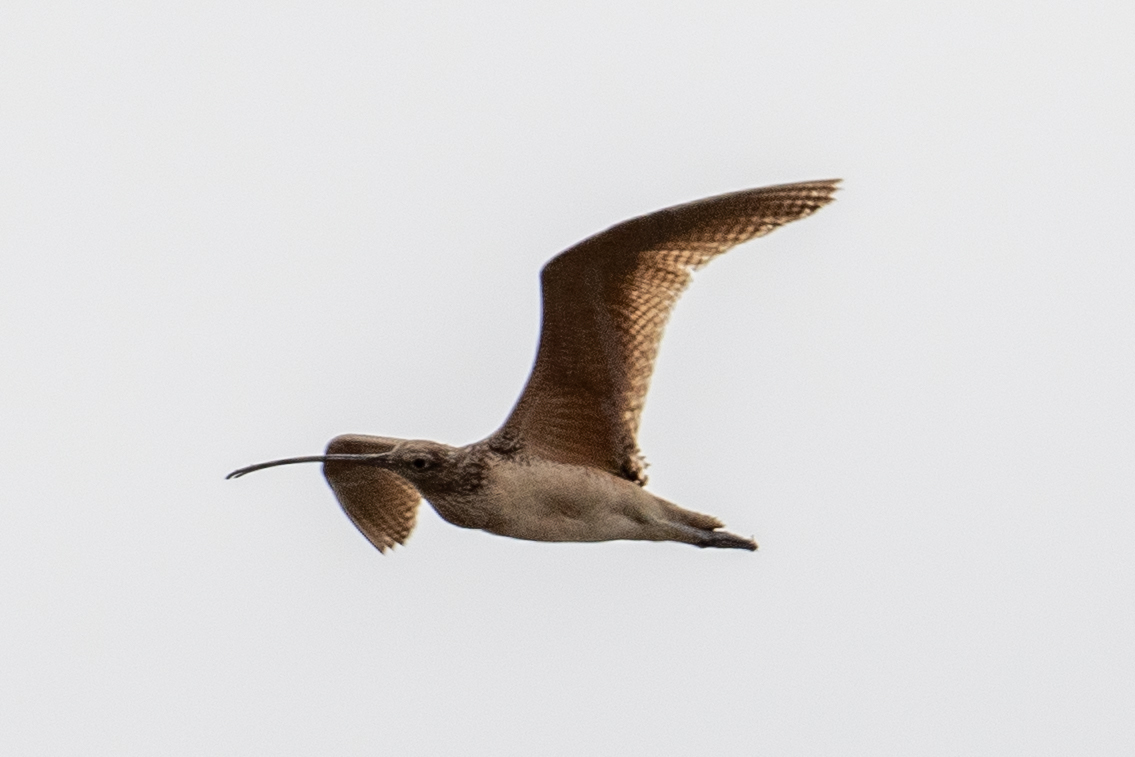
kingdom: Animalia
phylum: Chordata
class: Aves
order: Charadriiformes
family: Scolopacidae
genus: Numenius
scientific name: Numenius americanus
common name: Long-billed curlew
